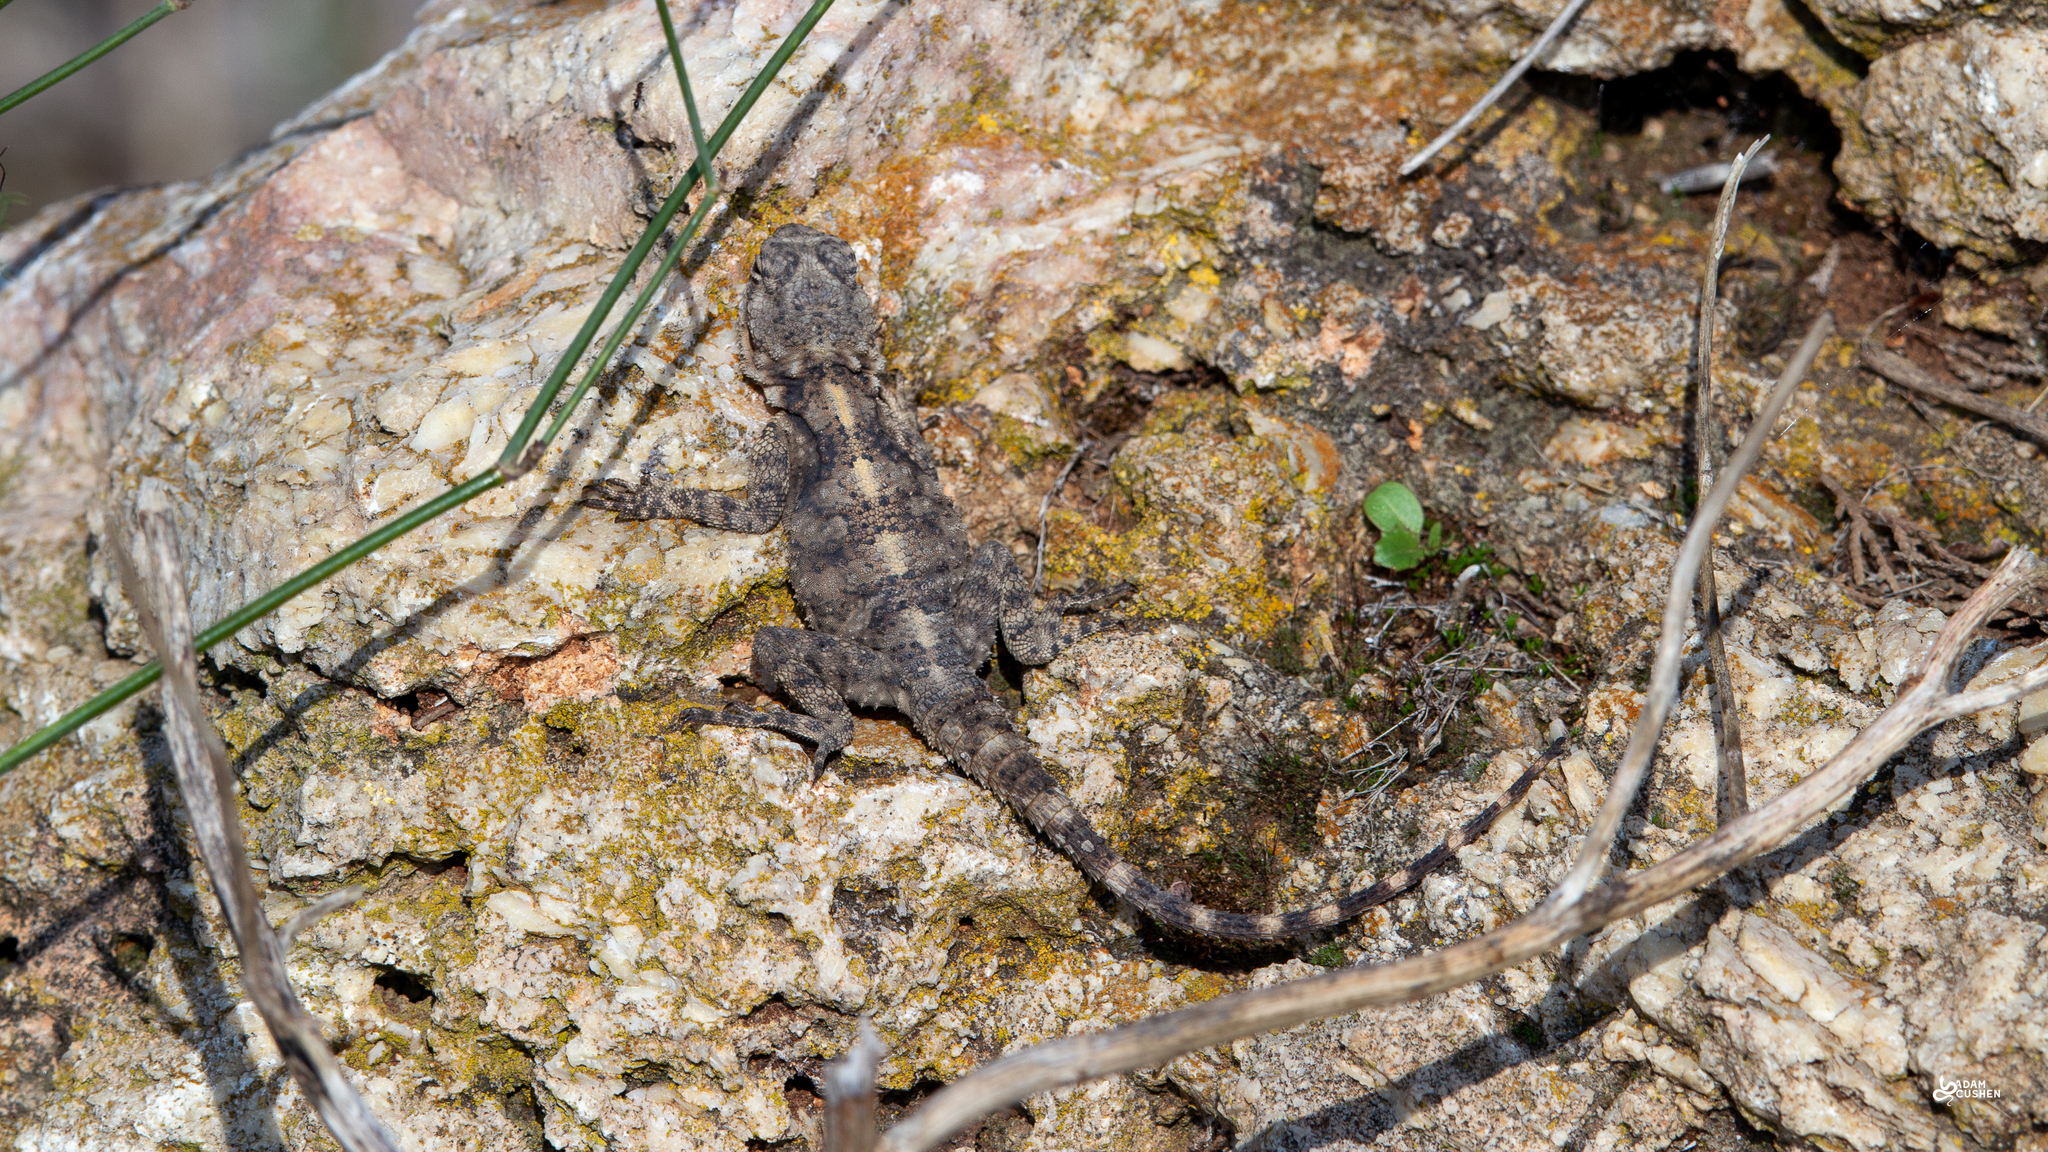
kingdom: Animalia
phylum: Chordata
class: Squamata
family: Agamidae
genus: Laudakia
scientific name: Laudakia vulgaris
